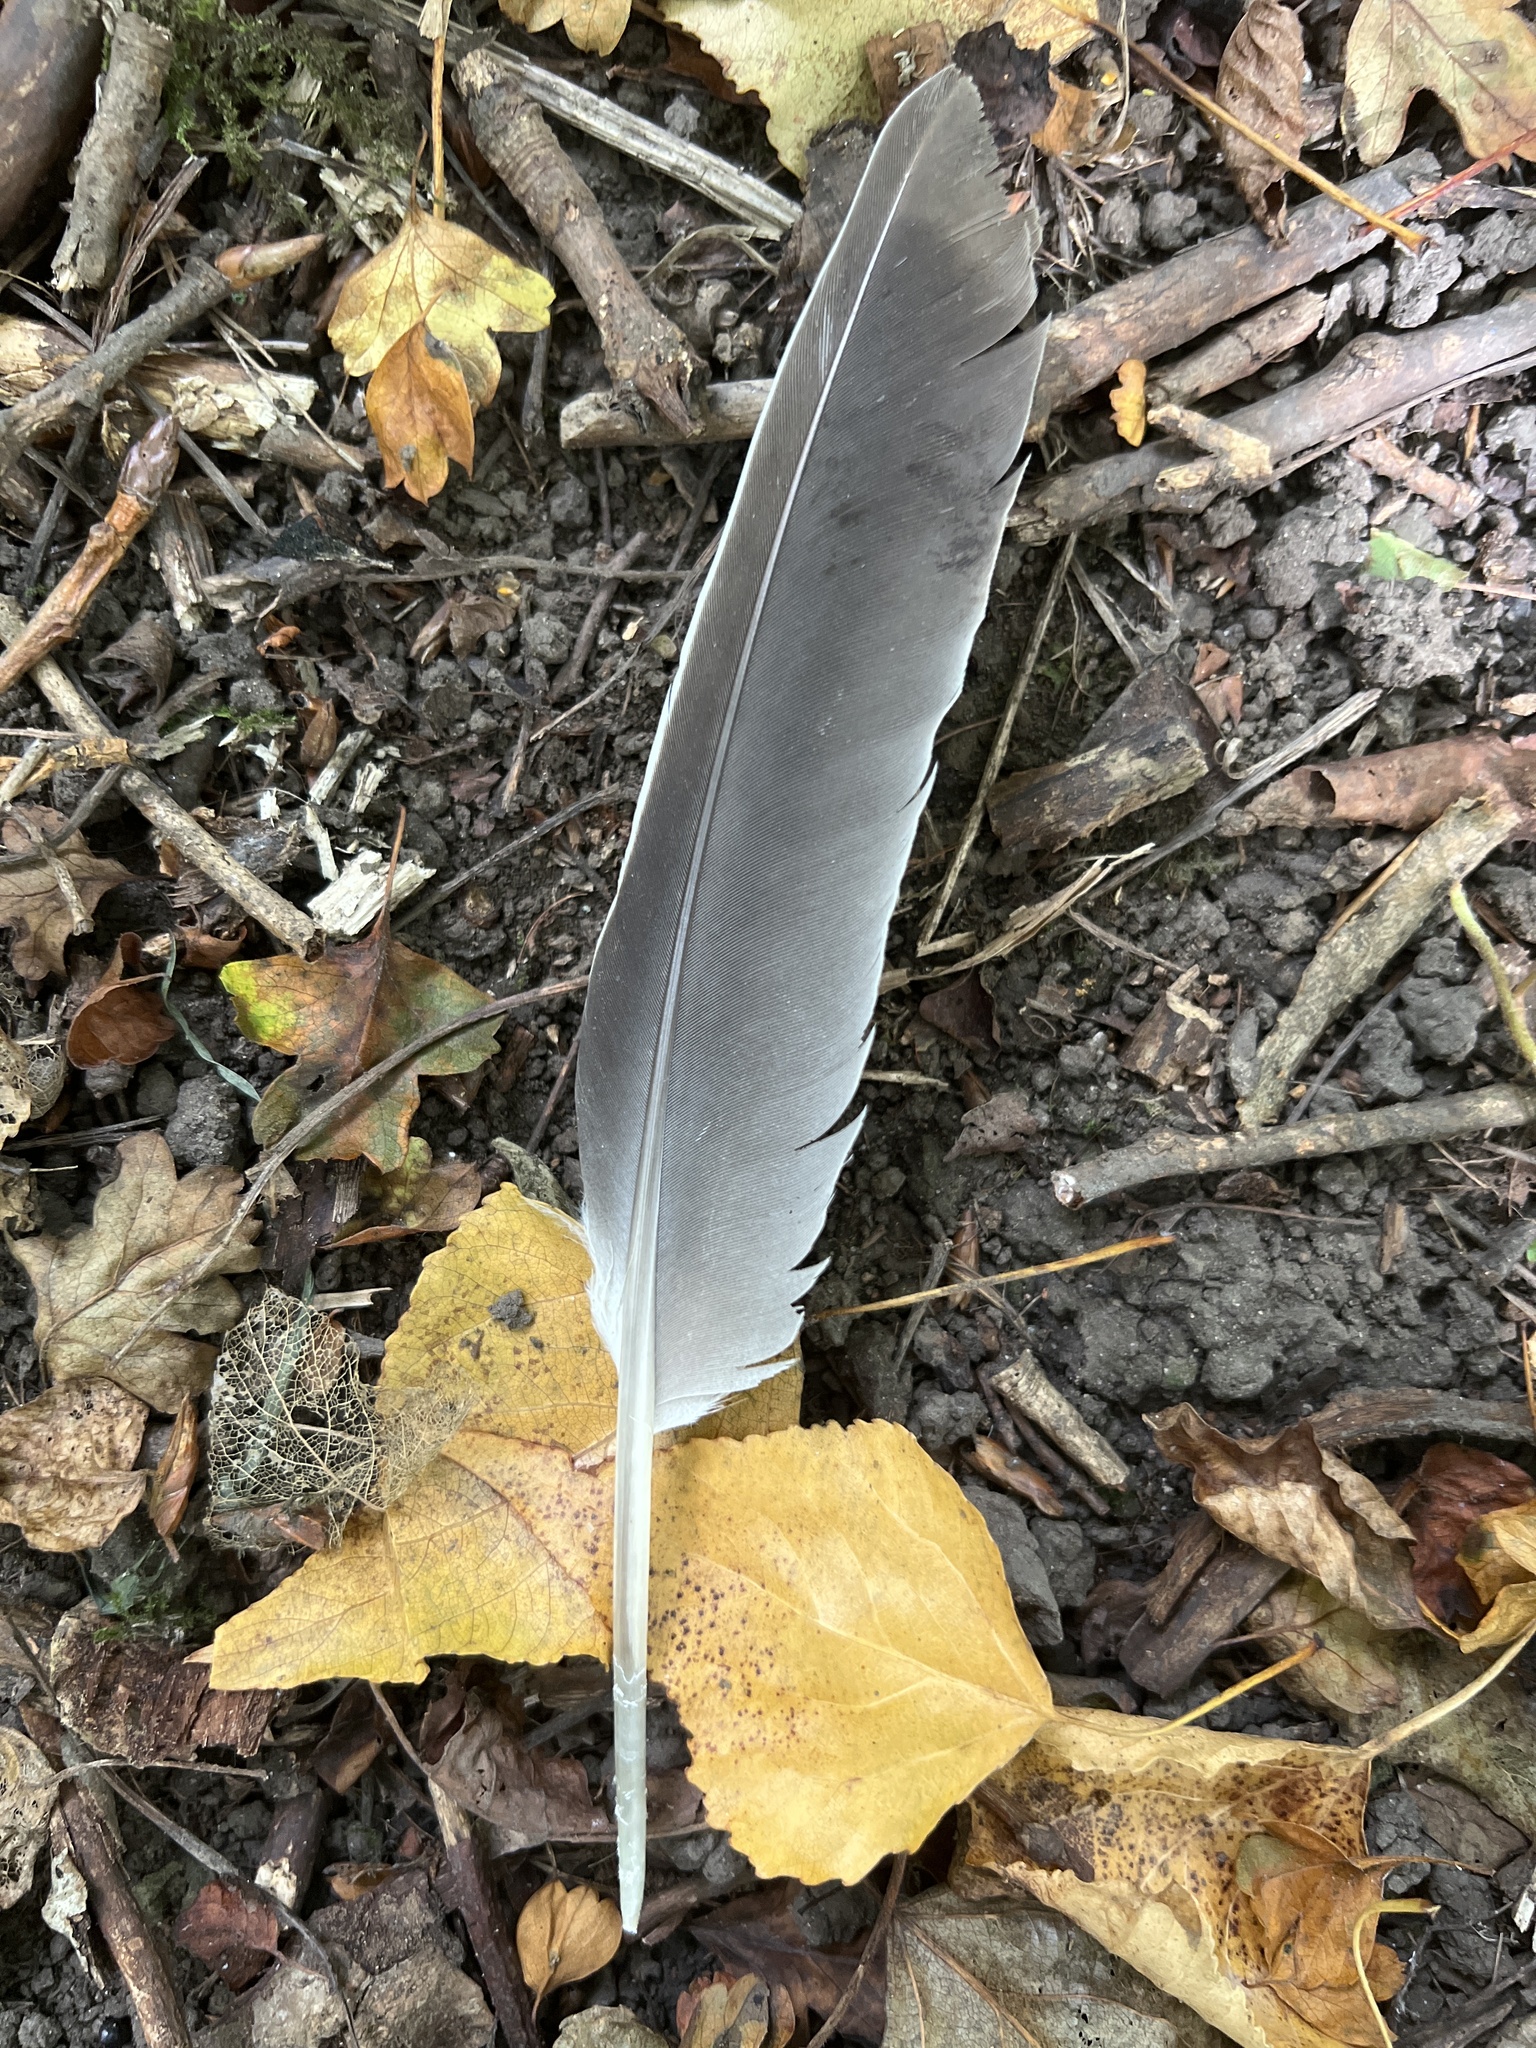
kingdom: Animalia
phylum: Chordata
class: Aves
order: Columbiformes
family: Columbidae
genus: Columba
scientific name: Columba palumbus
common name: Common wood pigeon
